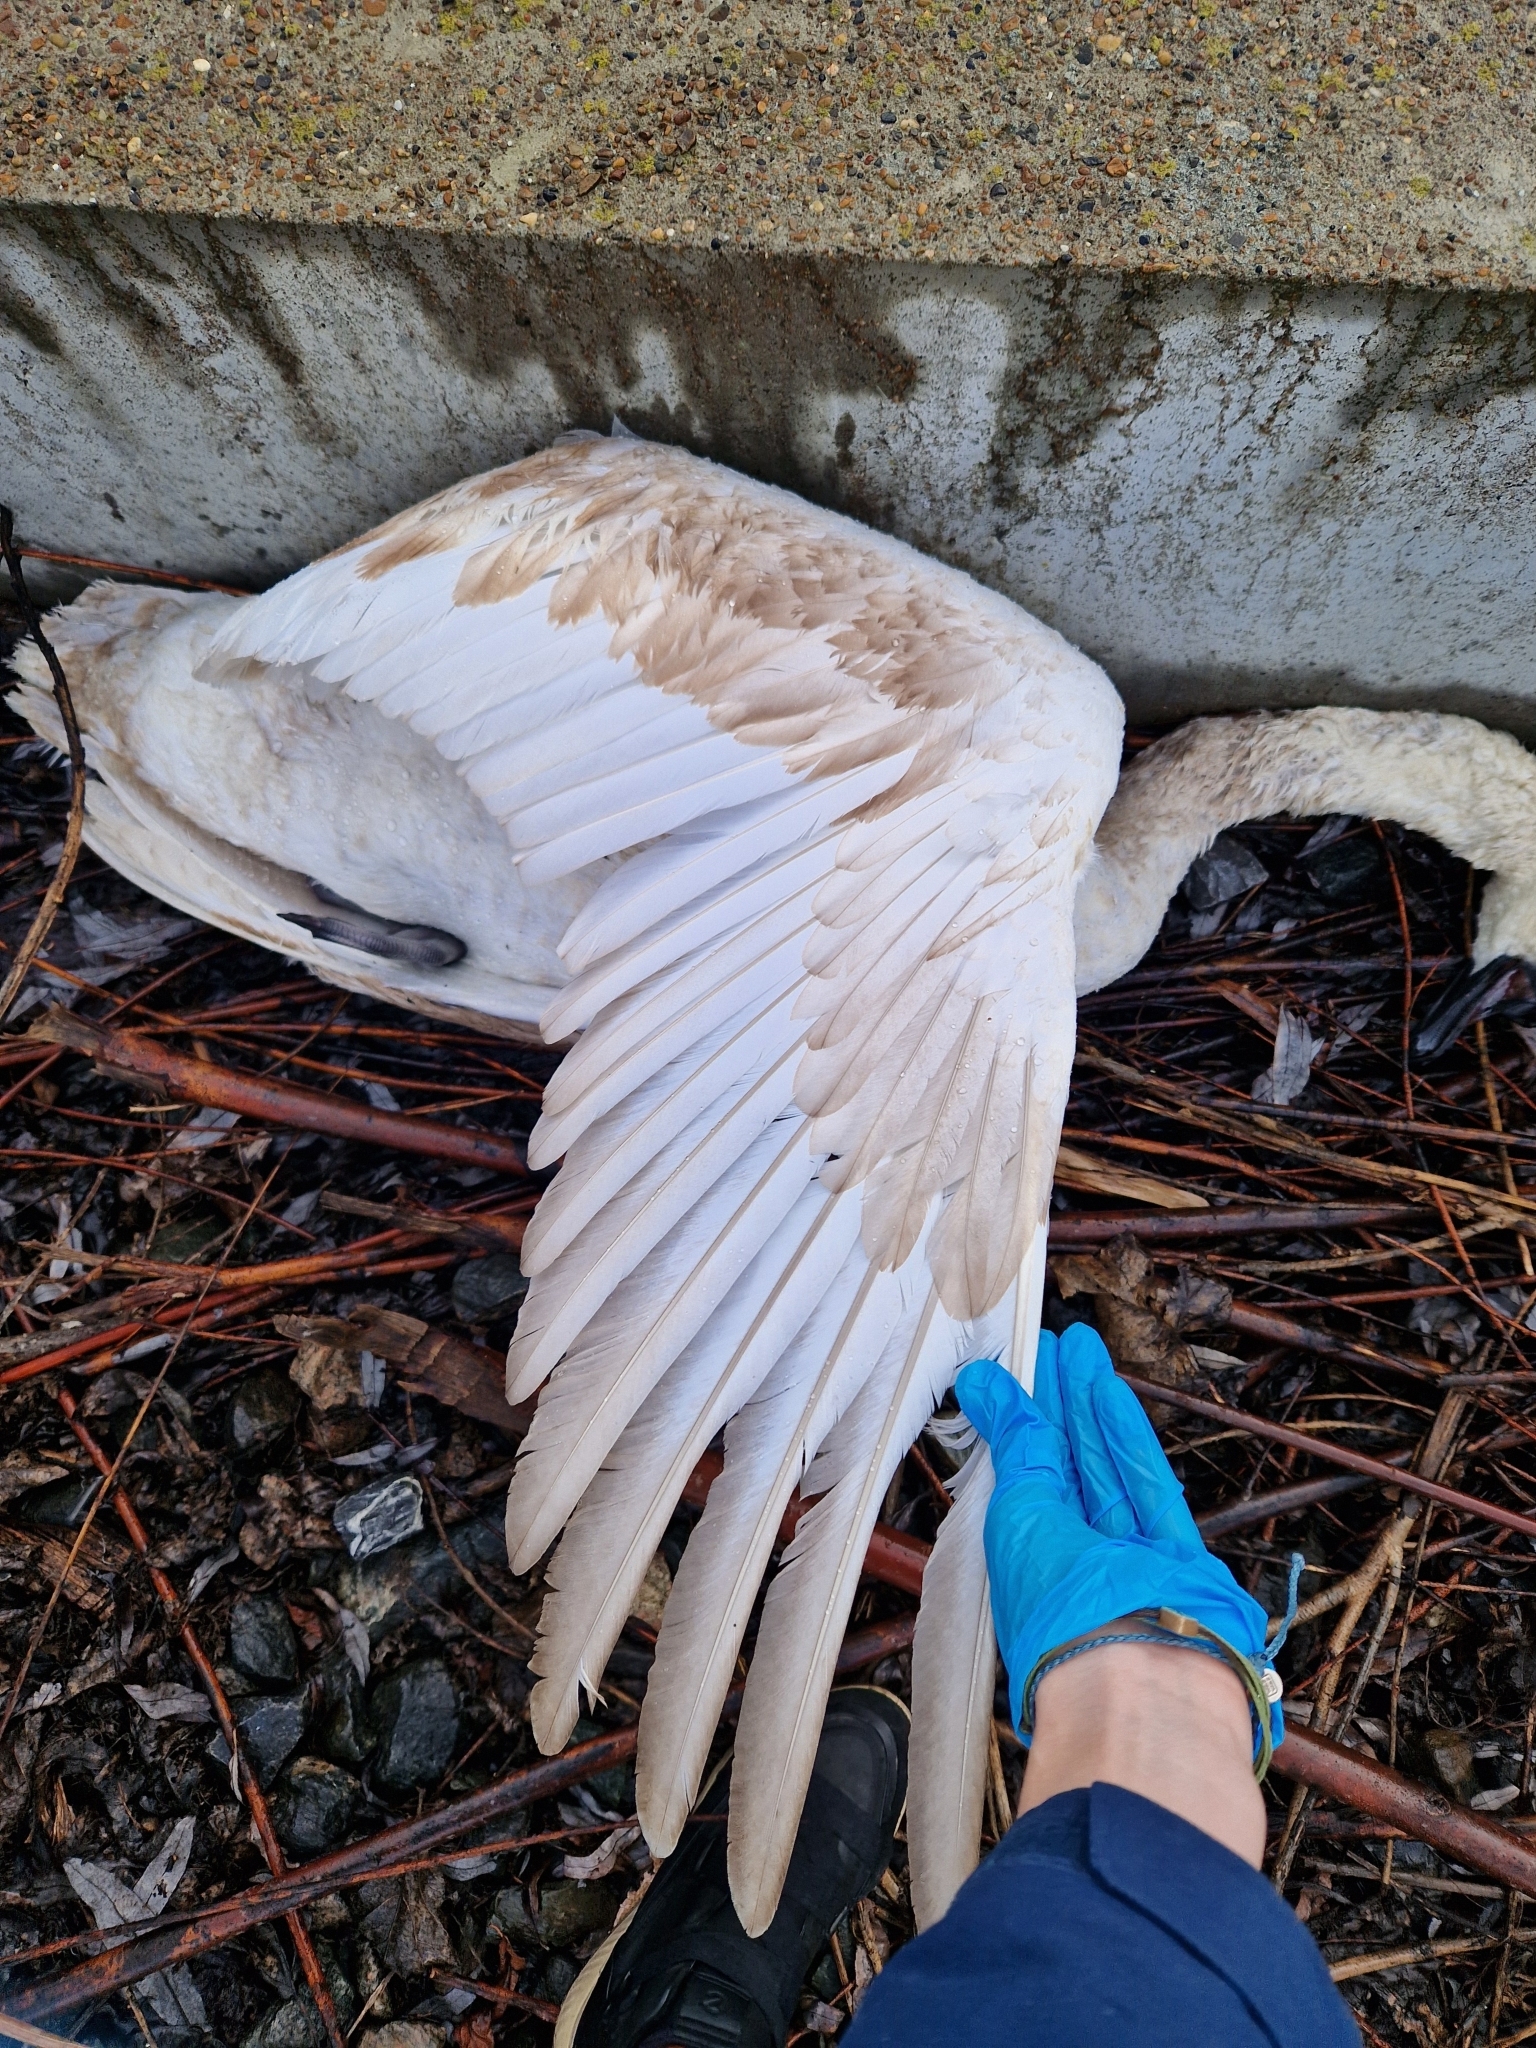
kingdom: Animalia
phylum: Chordata
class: Aves
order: Anseriformes
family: Anatidae
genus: Cygnus
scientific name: Cygnus olor
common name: Mute swan
